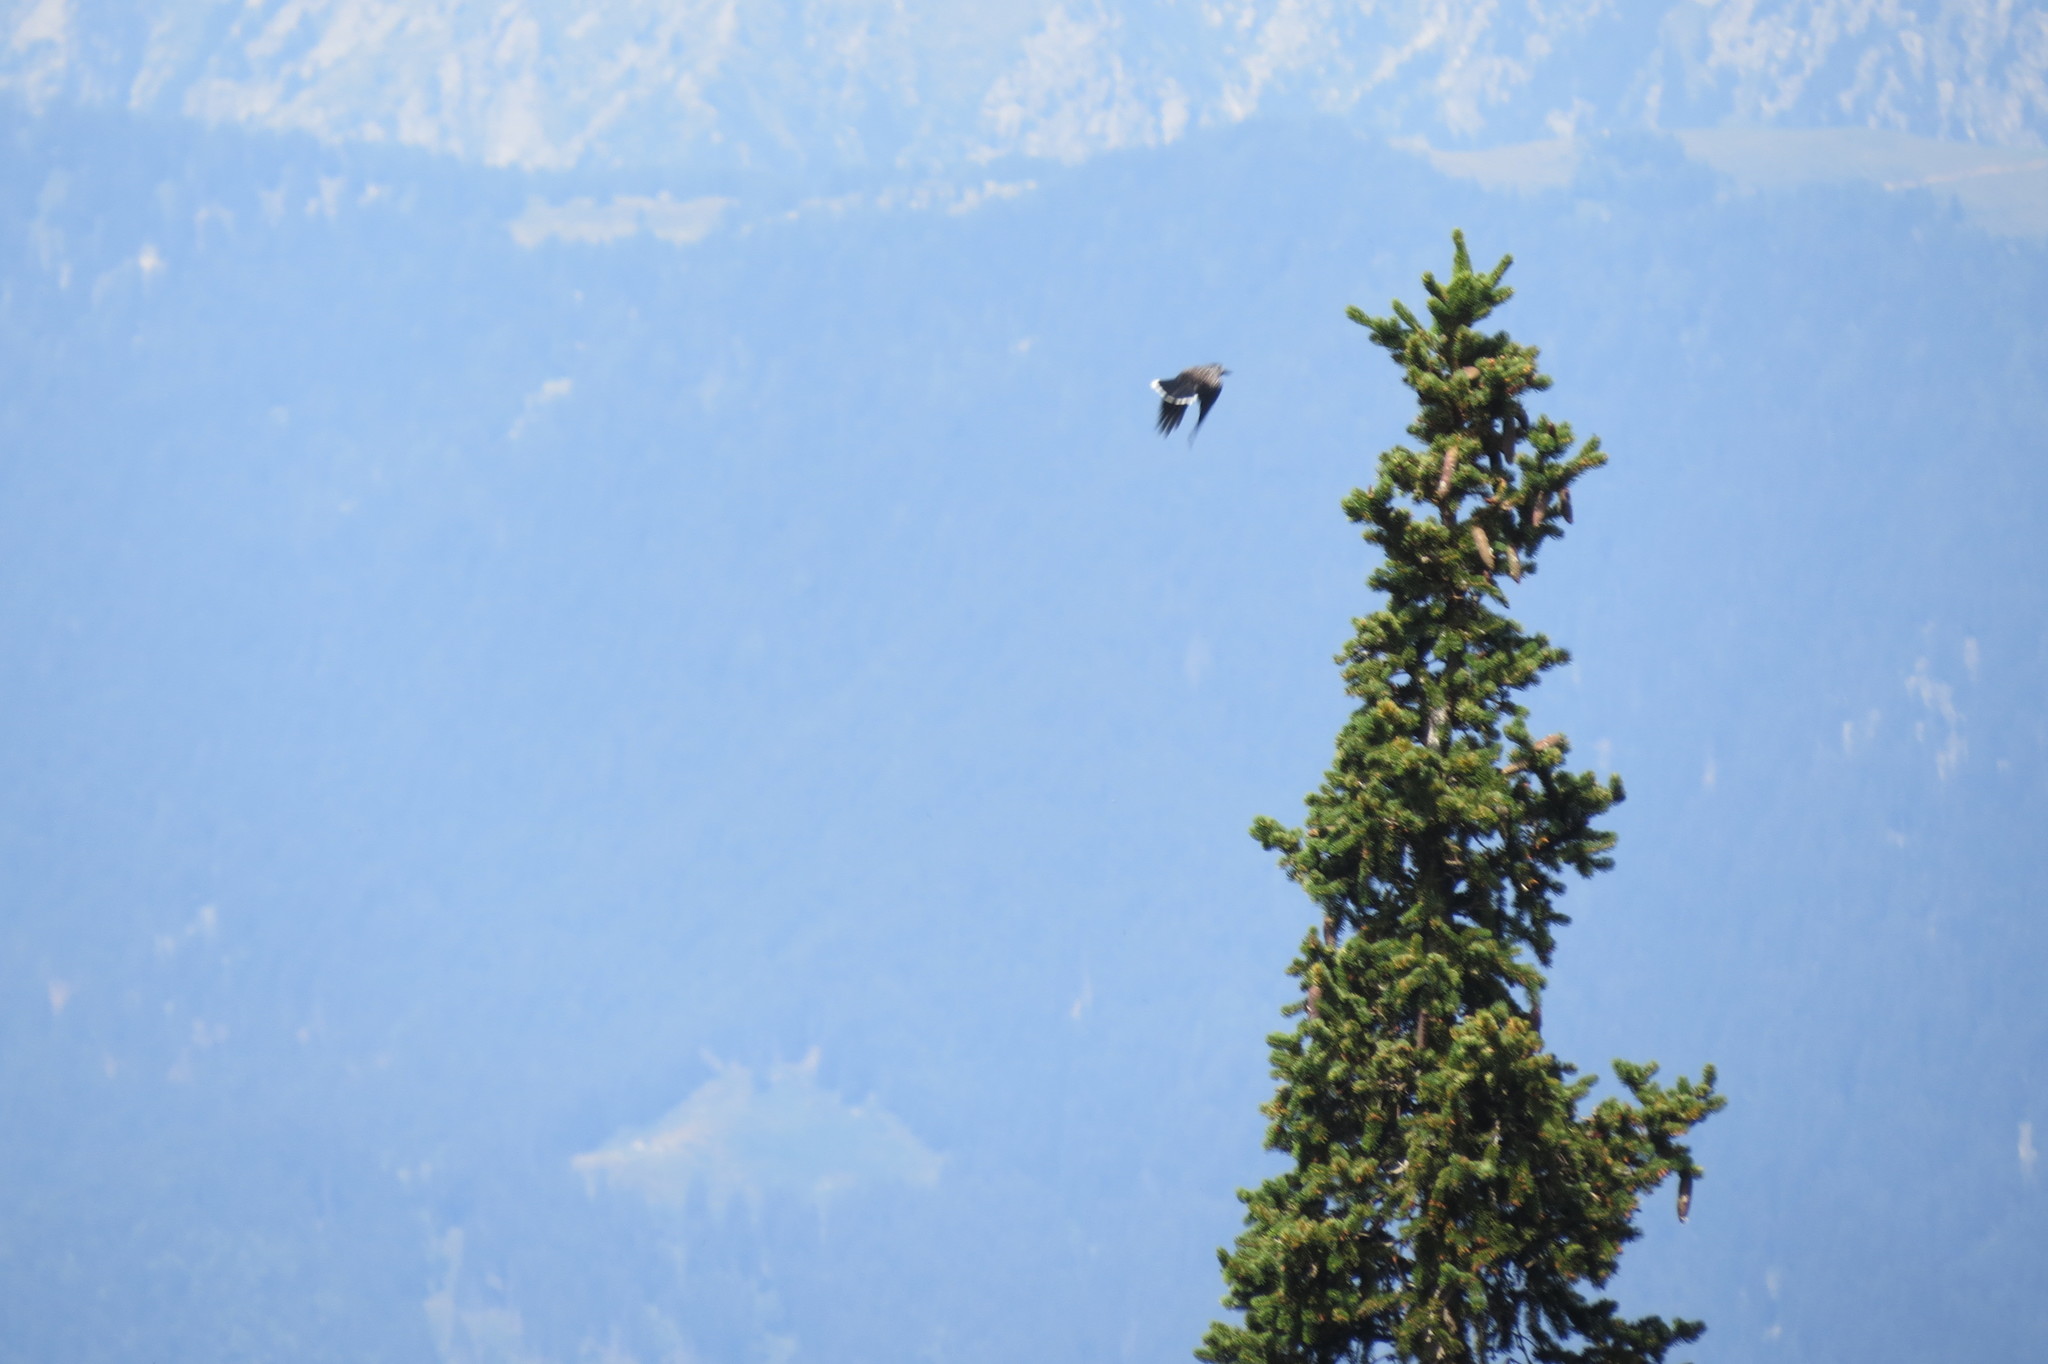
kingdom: Animalia
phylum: Chordata
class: Aves
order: Passeriformes
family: Corvidae
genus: Nucifraga
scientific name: Nucifraga caryocatactes
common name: Spotted nutcracker
